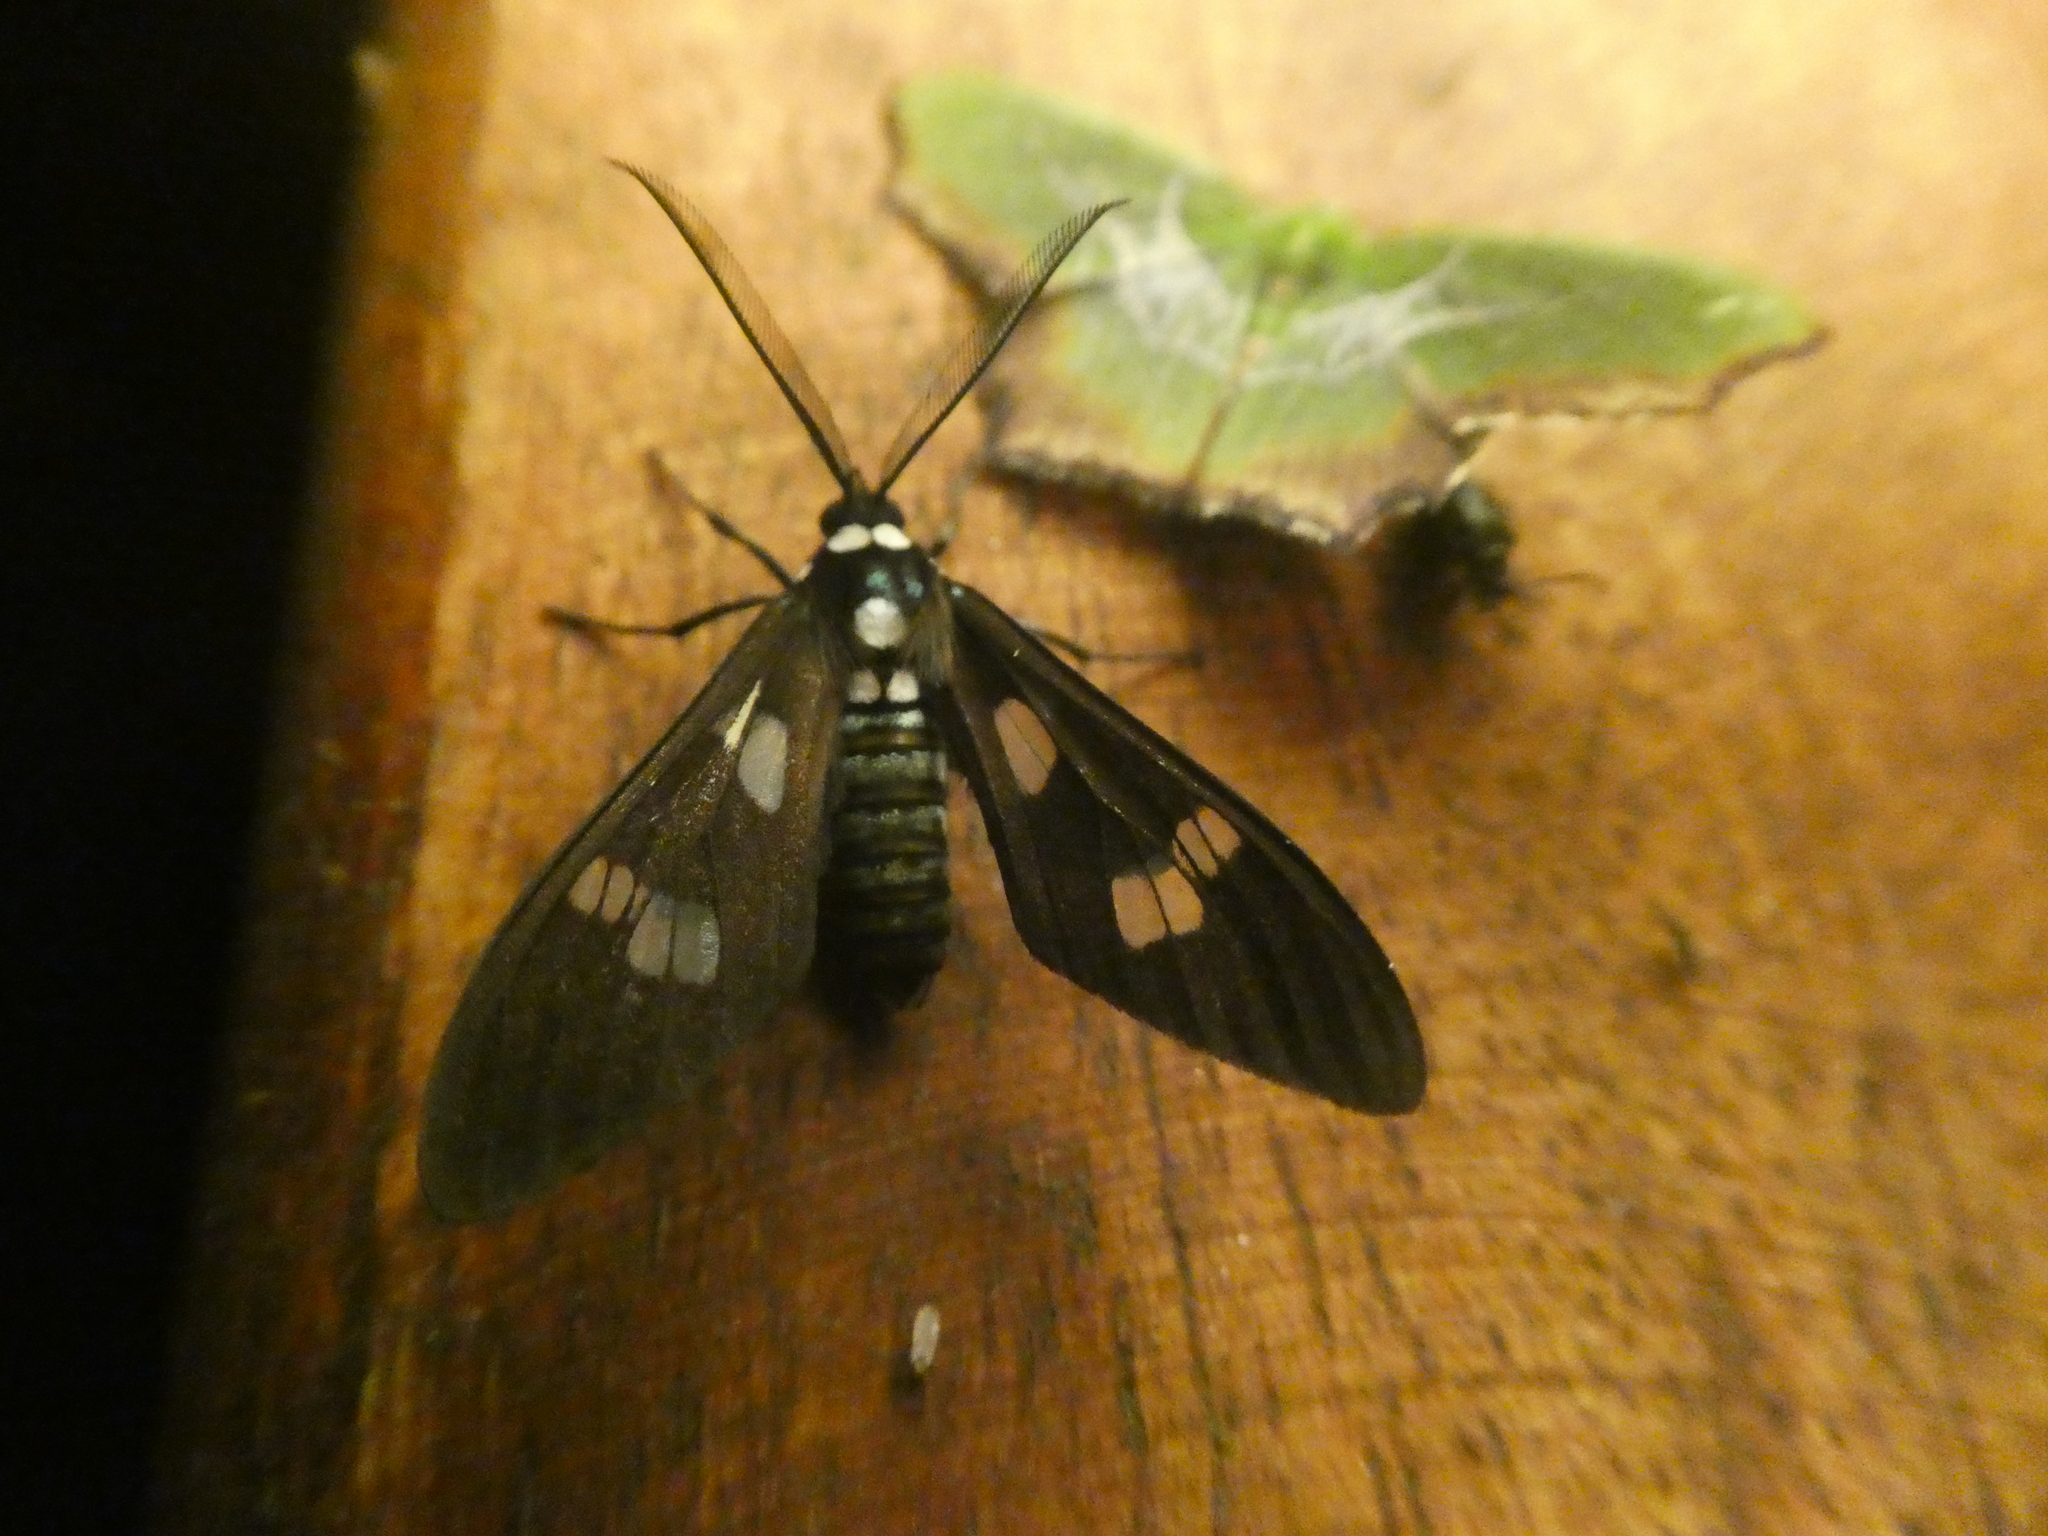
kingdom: Animalia
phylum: Arthropoda
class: Insecta
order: Lepidoptera
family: Erebidae
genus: Phaio
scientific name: Phaio acquiguttata
